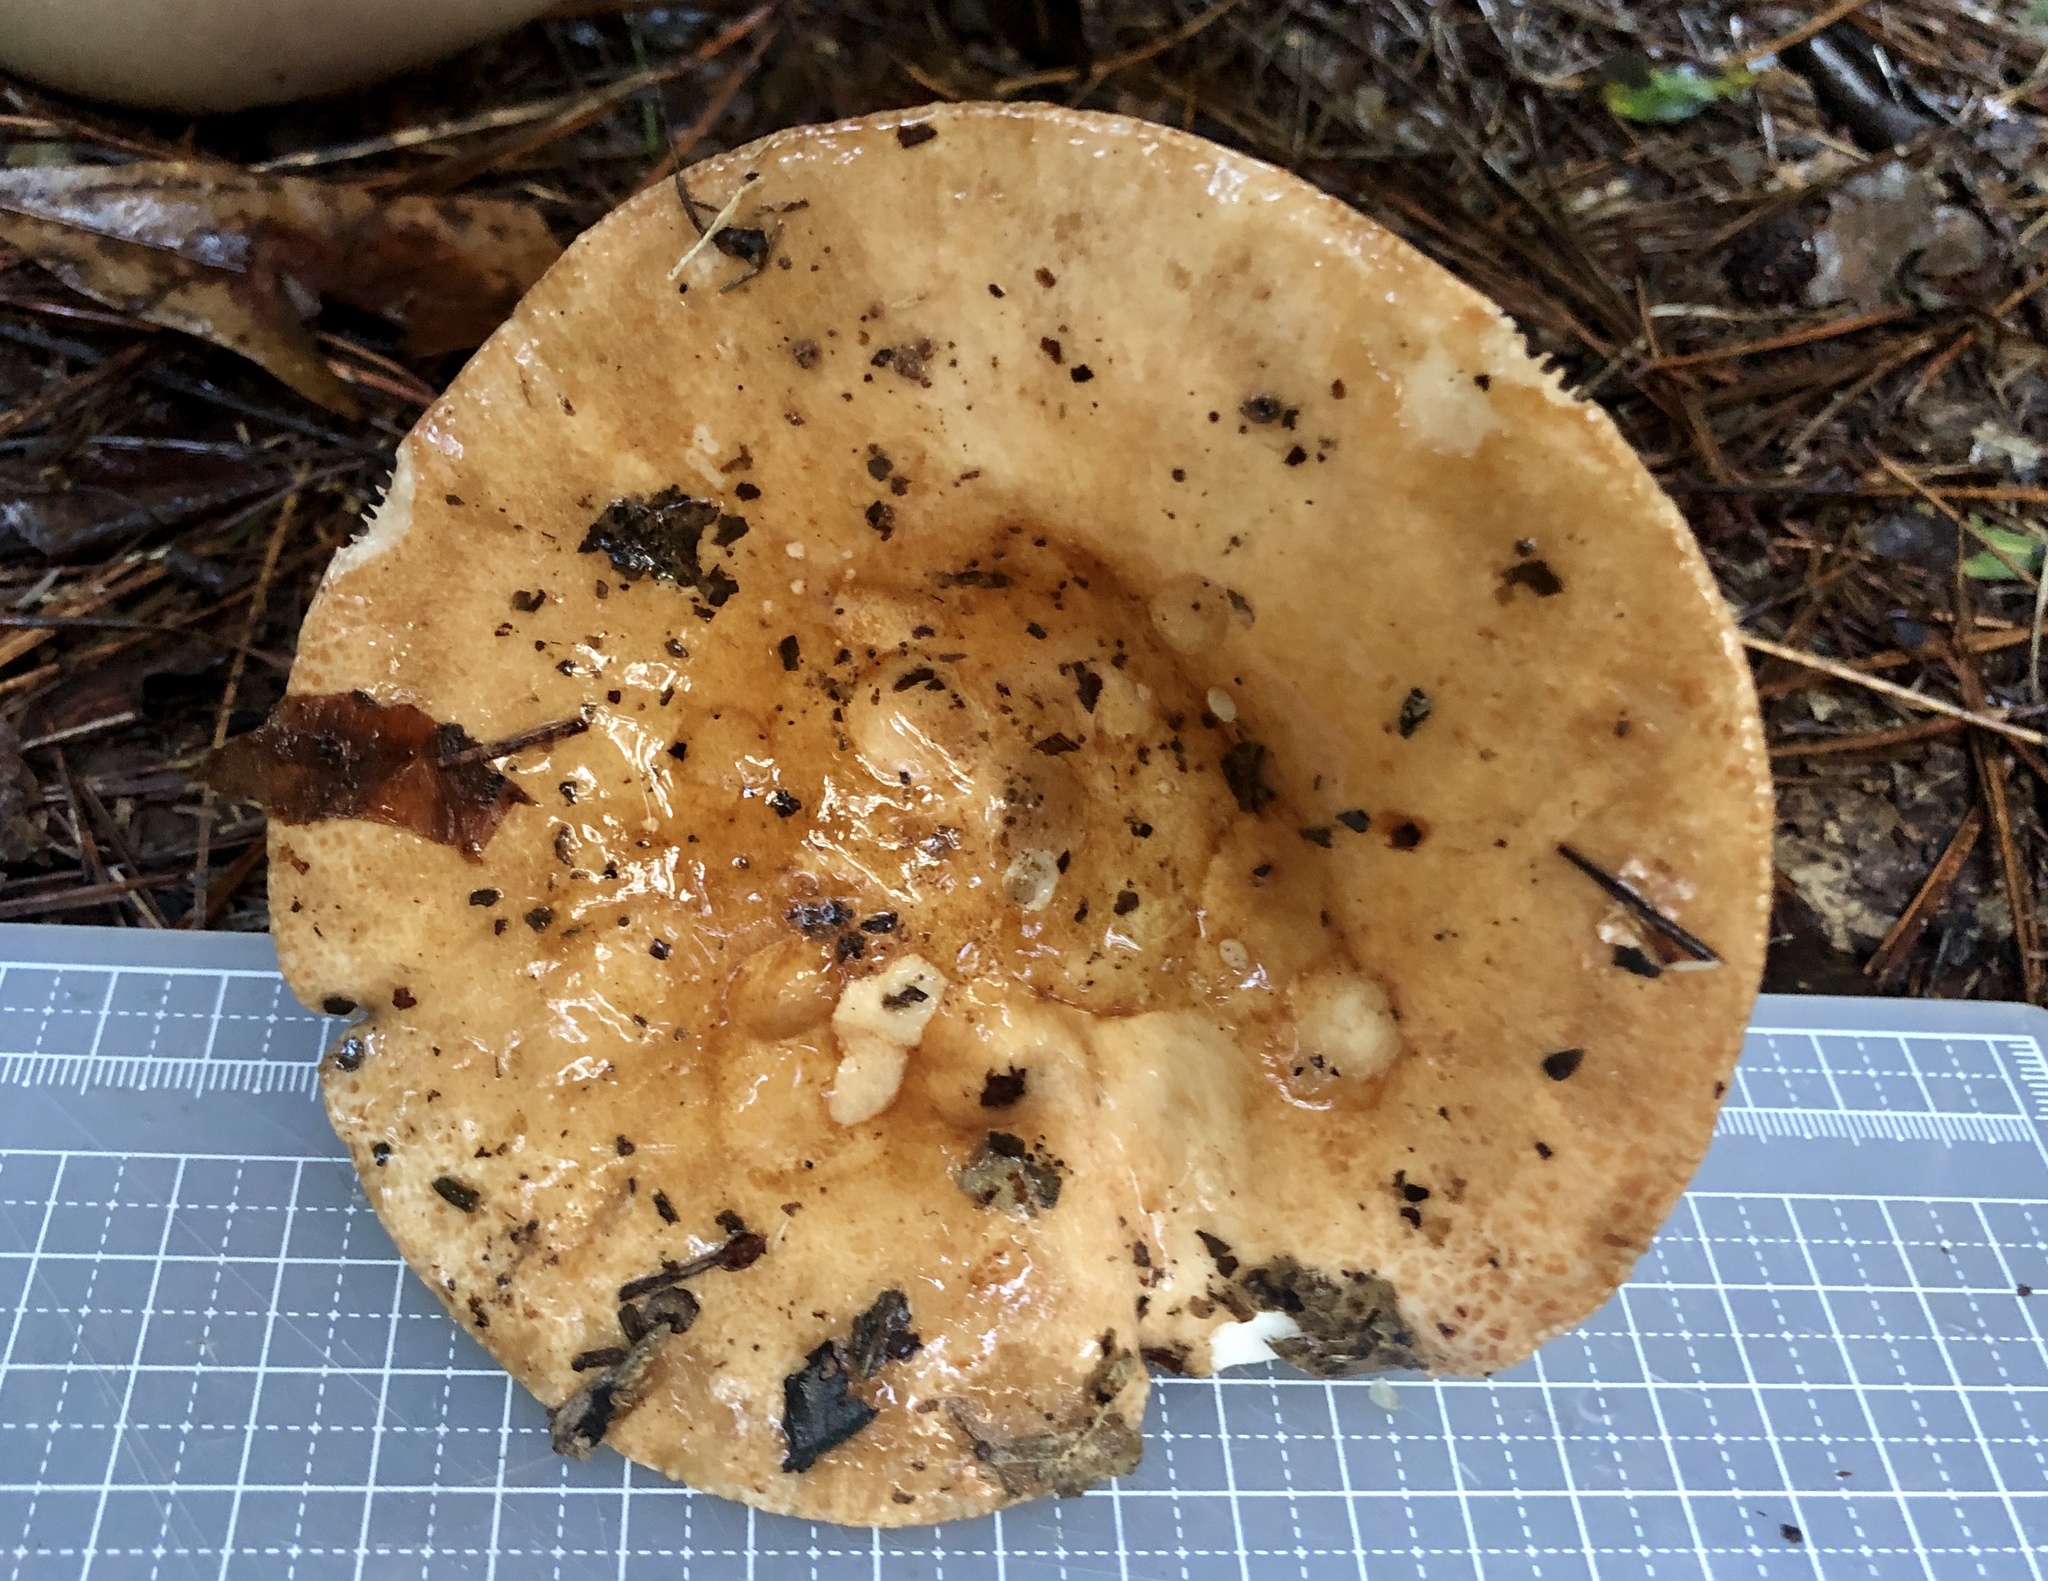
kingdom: Fungi
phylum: Basidiomycota
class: Agaricomycetes
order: Russulales
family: Russulaceae
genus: Russula
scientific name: Russula compacta
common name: Fishbiscuit russula
